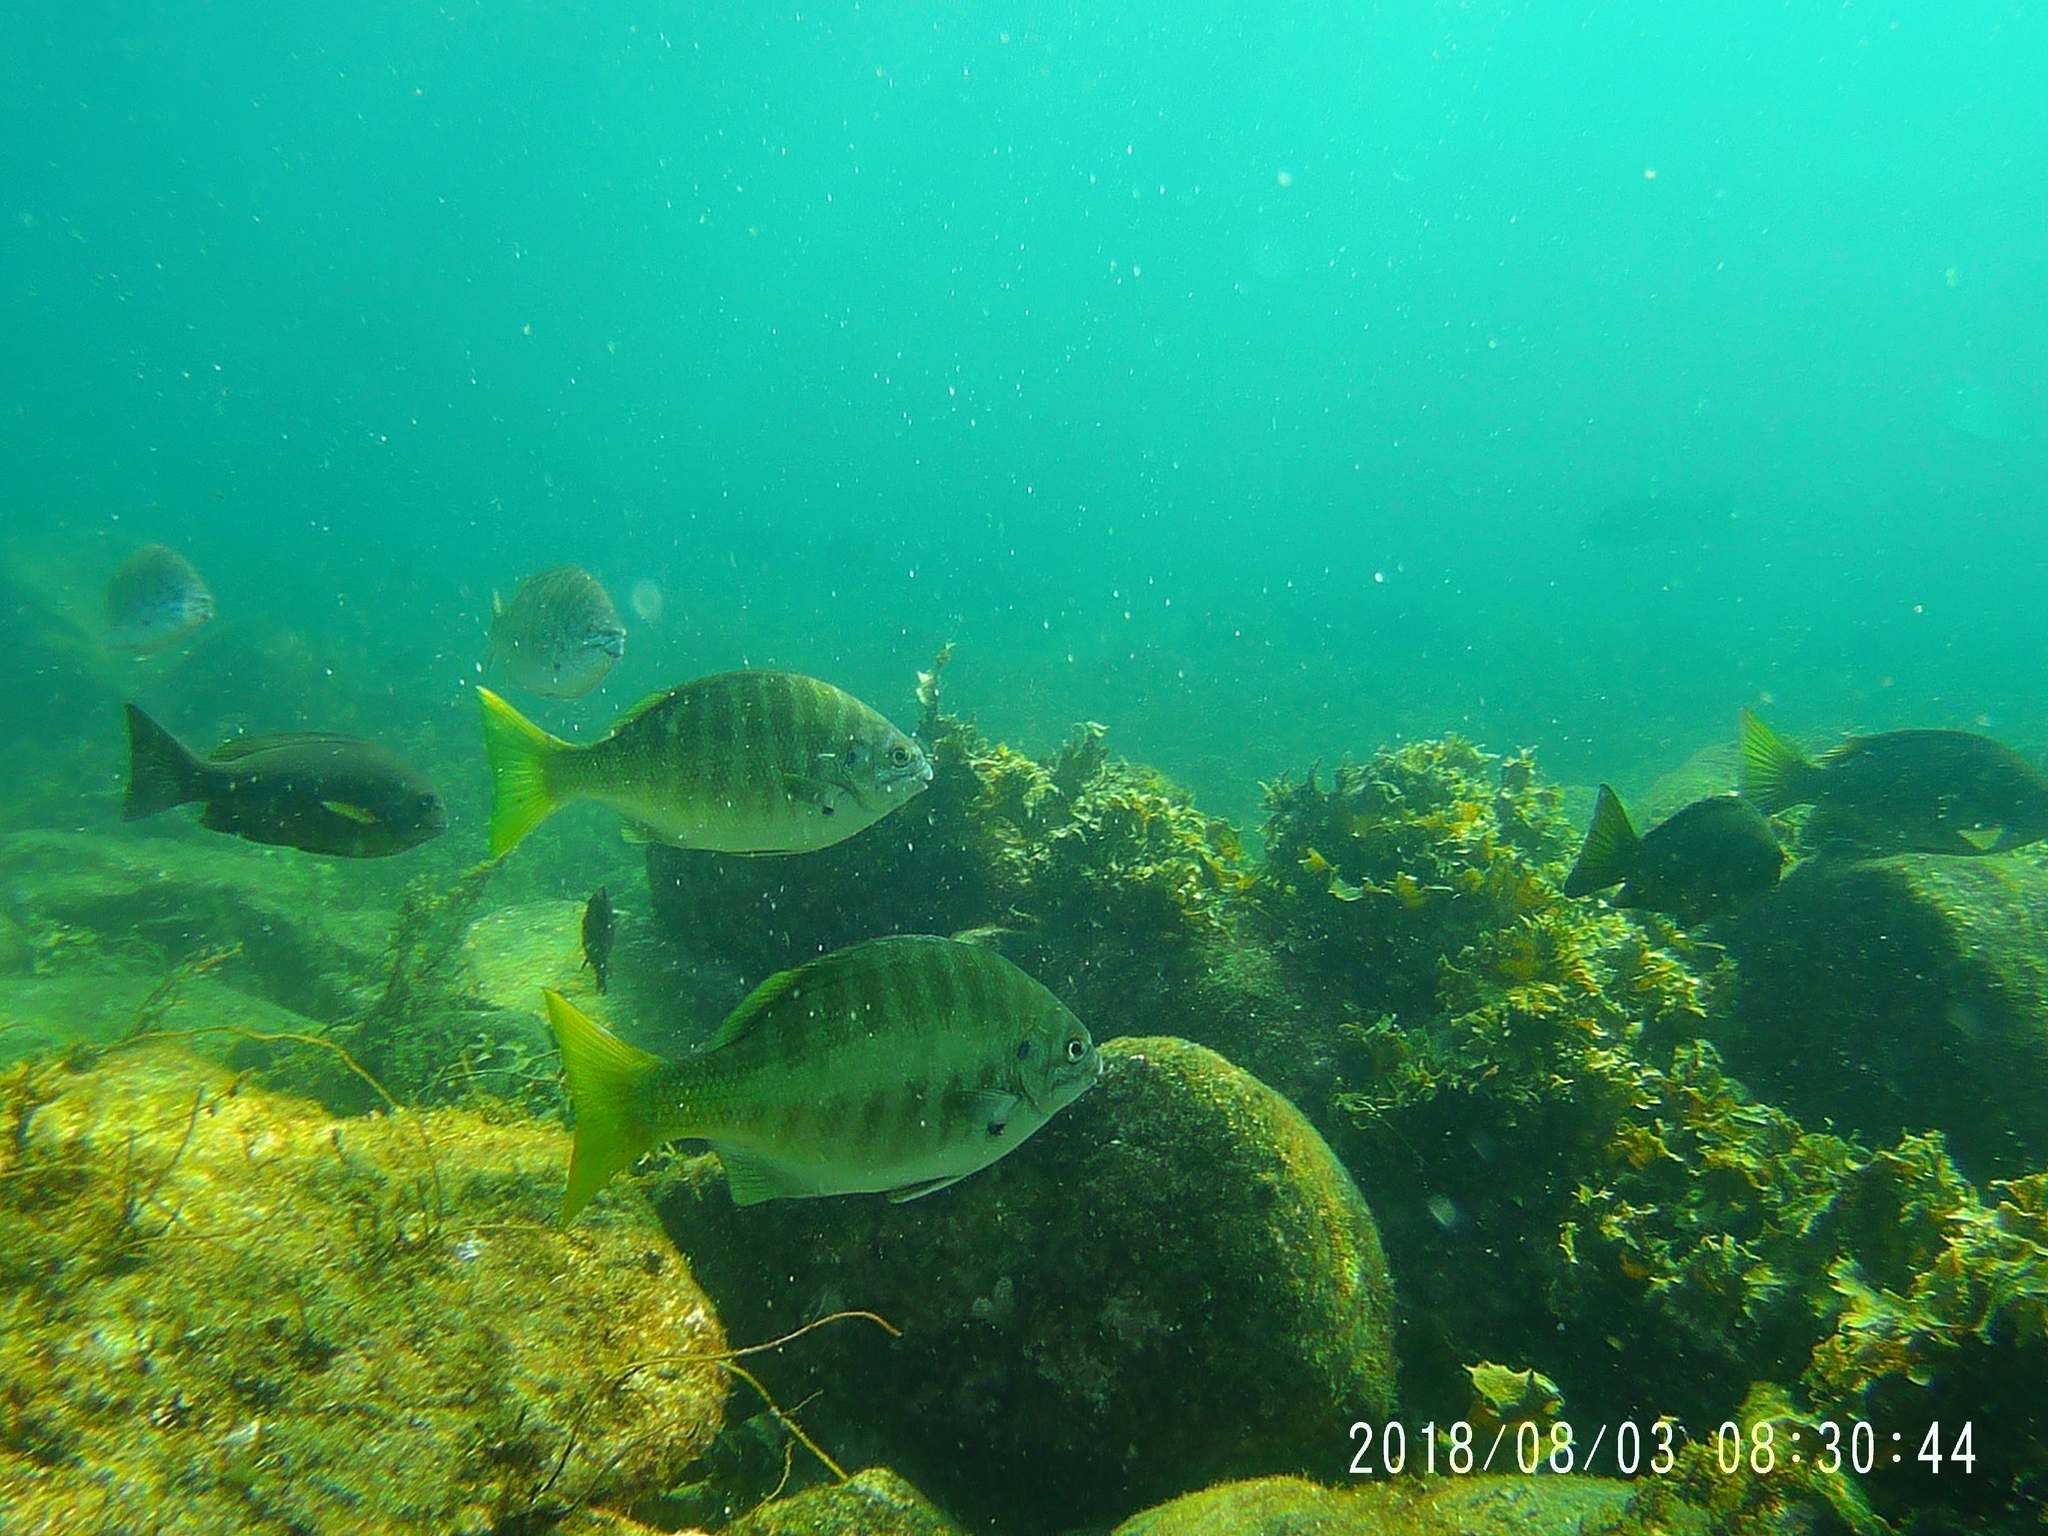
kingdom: Animalia
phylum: Chordata
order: Perciformes
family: Kyphosidae
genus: Kyphosus
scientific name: Kyphosus azureus
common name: Perch
